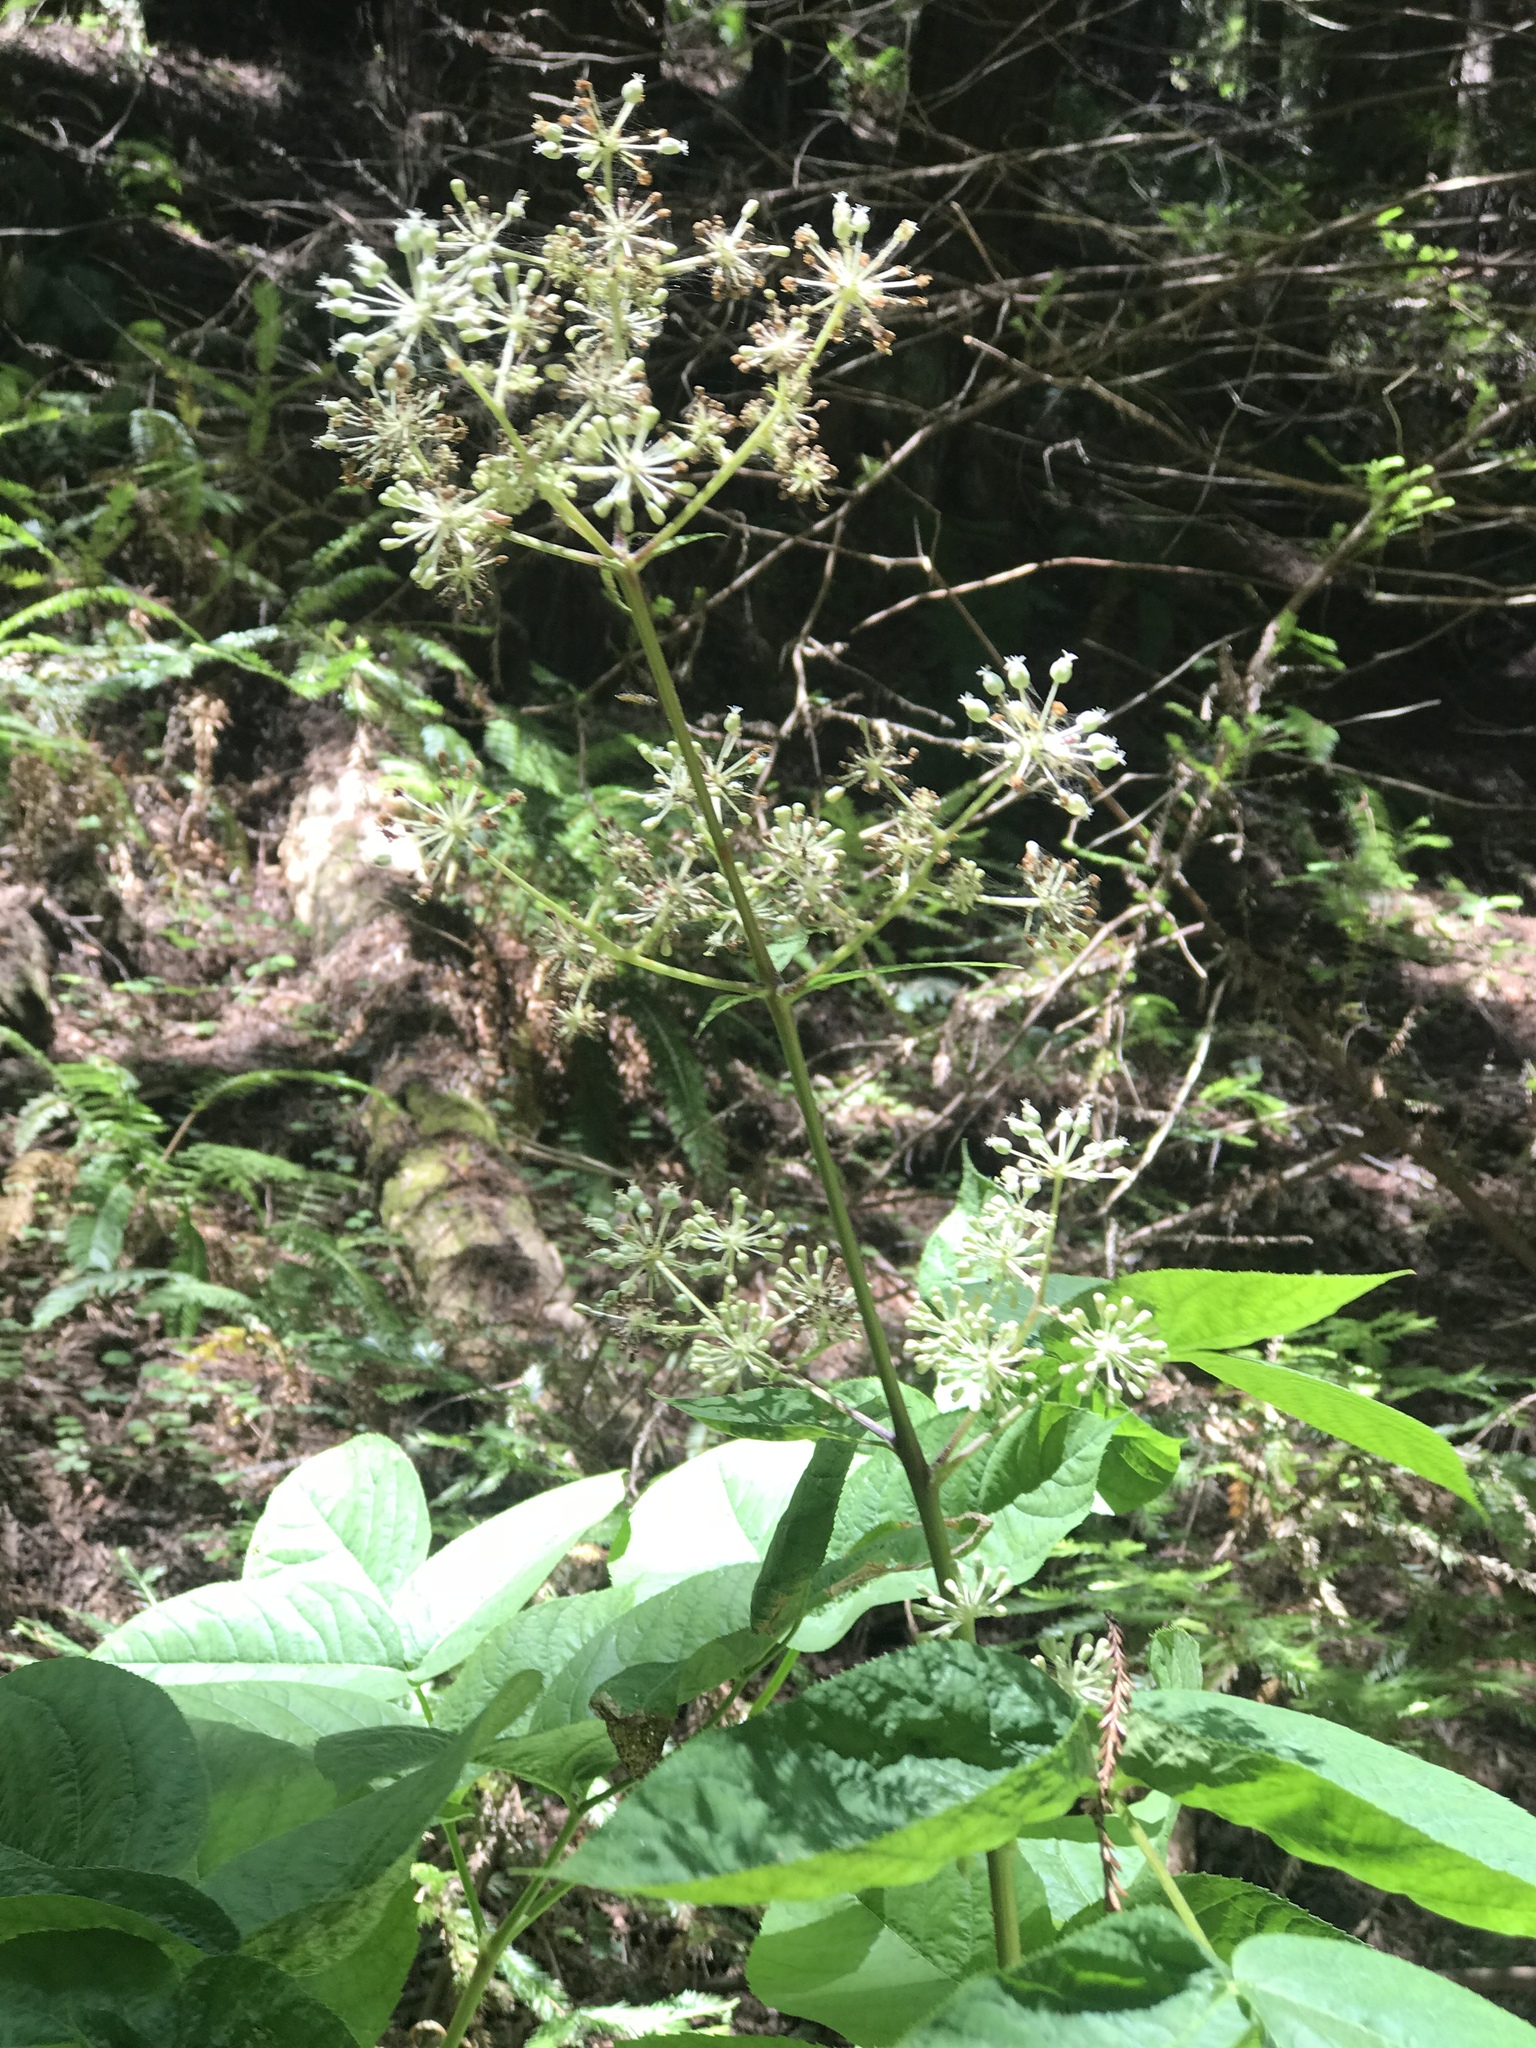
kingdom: Plantae
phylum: Tracheophyta
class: Magnoliopsida
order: Apiales
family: Araliaceae
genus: Aralia
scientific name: Aralia californica
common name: California-ginseng
